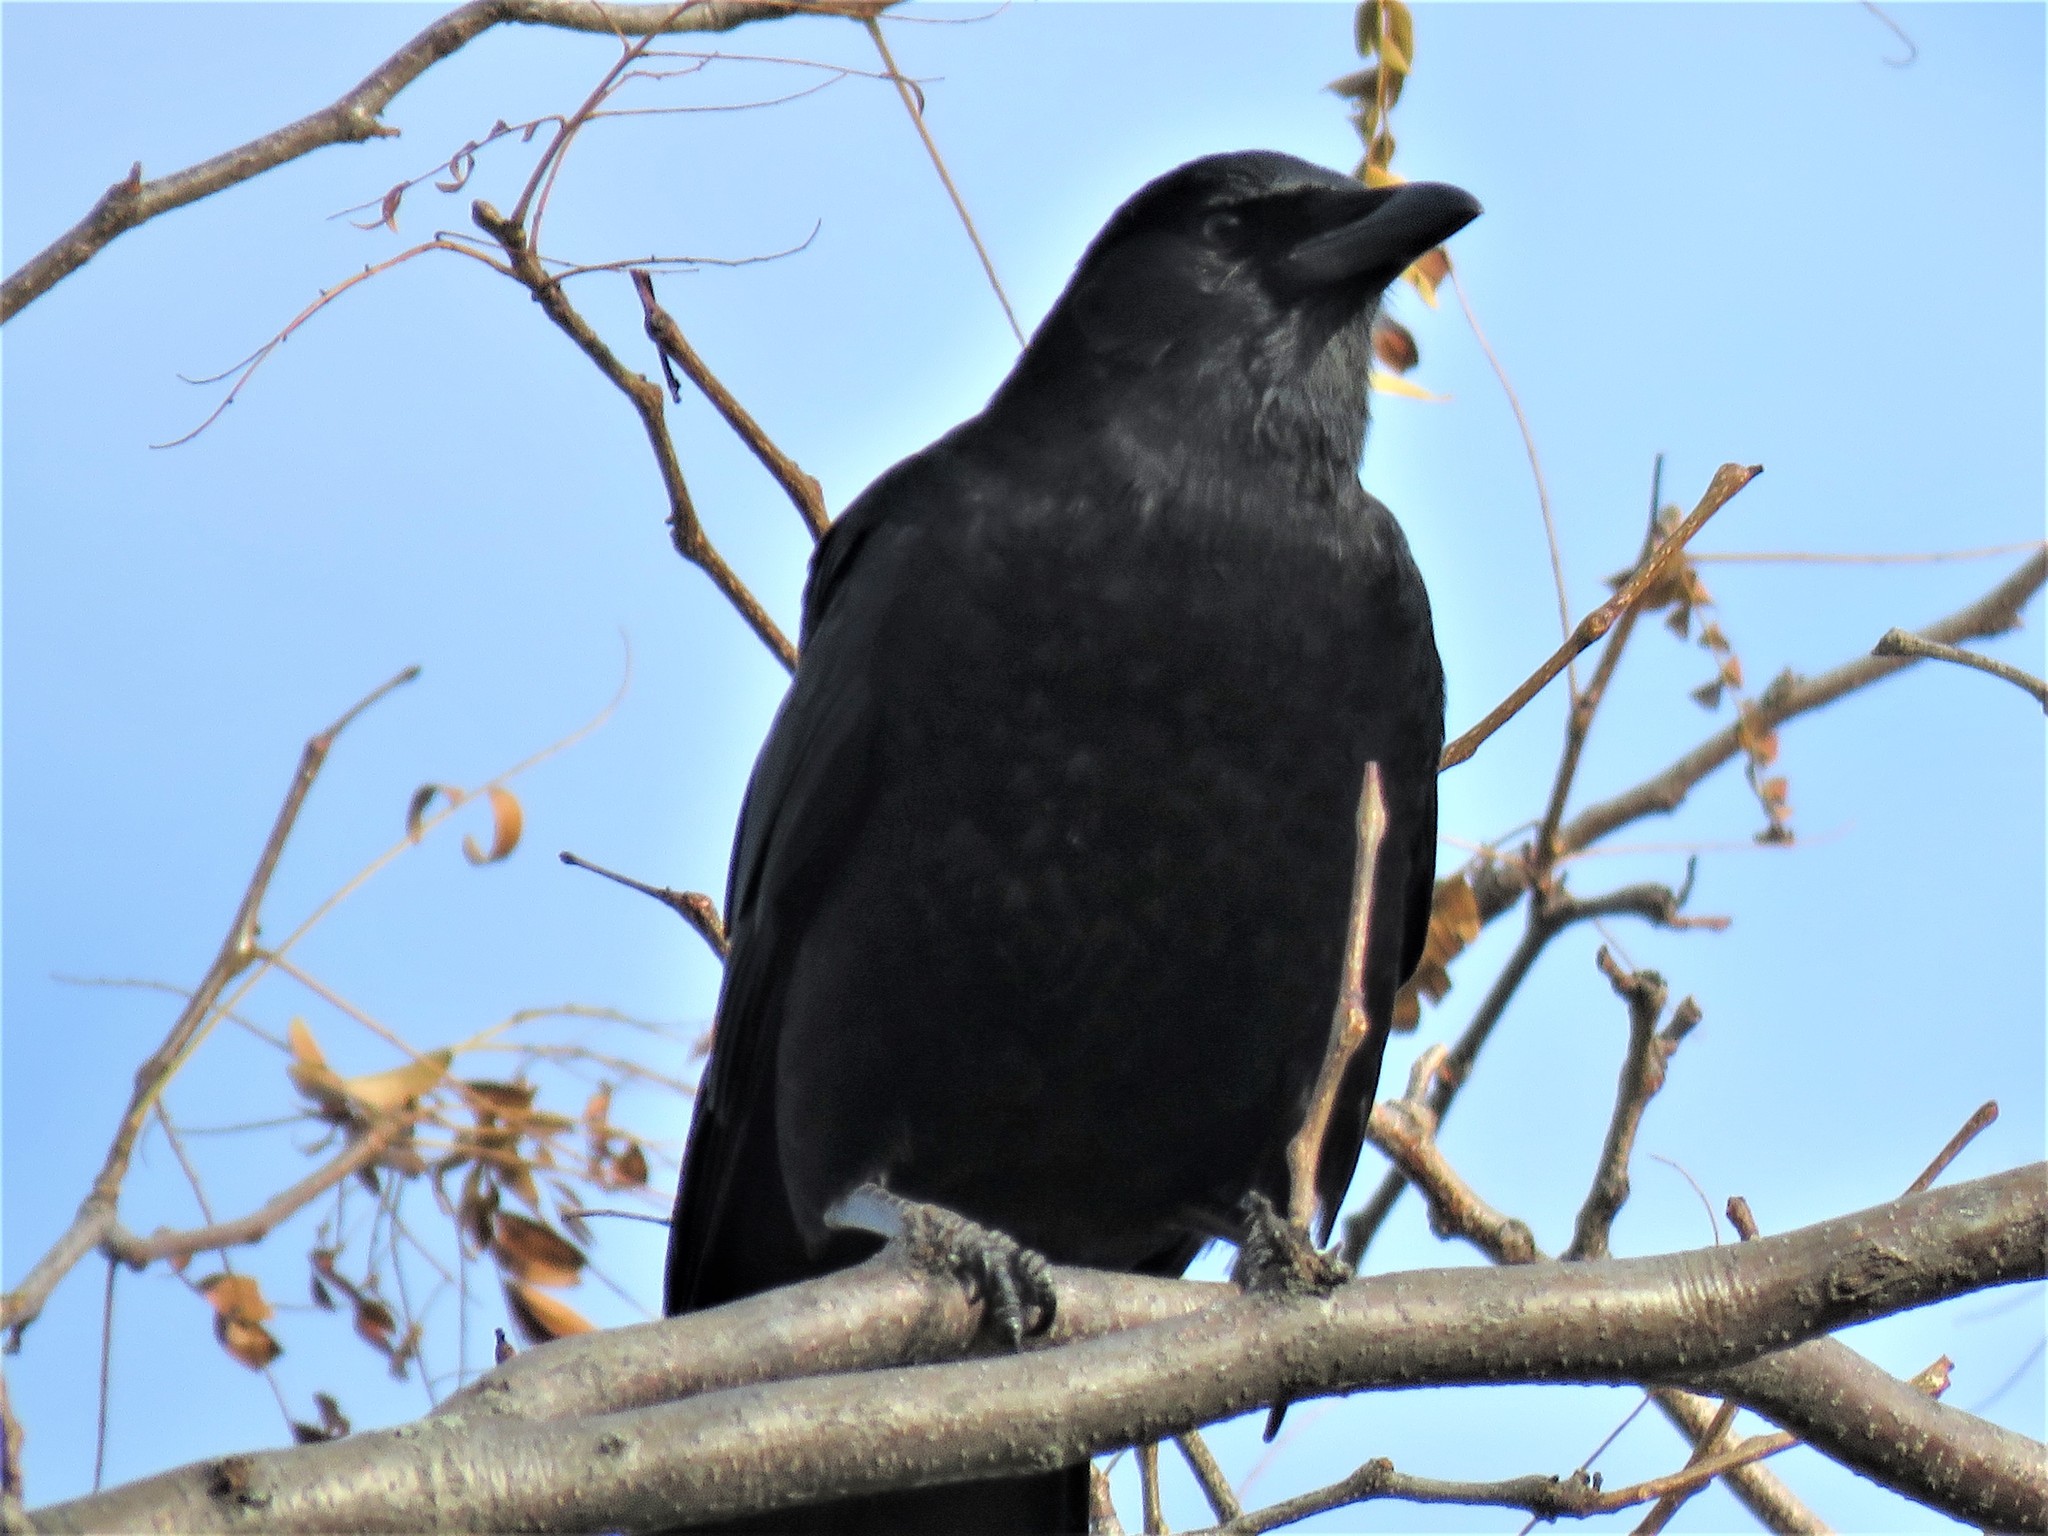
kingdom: Animalia
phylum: Chordata
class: Aves
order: Passeriformes
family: Corvidae
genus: Corvus
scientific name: Corvus brachyrhynchos
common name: American crow
